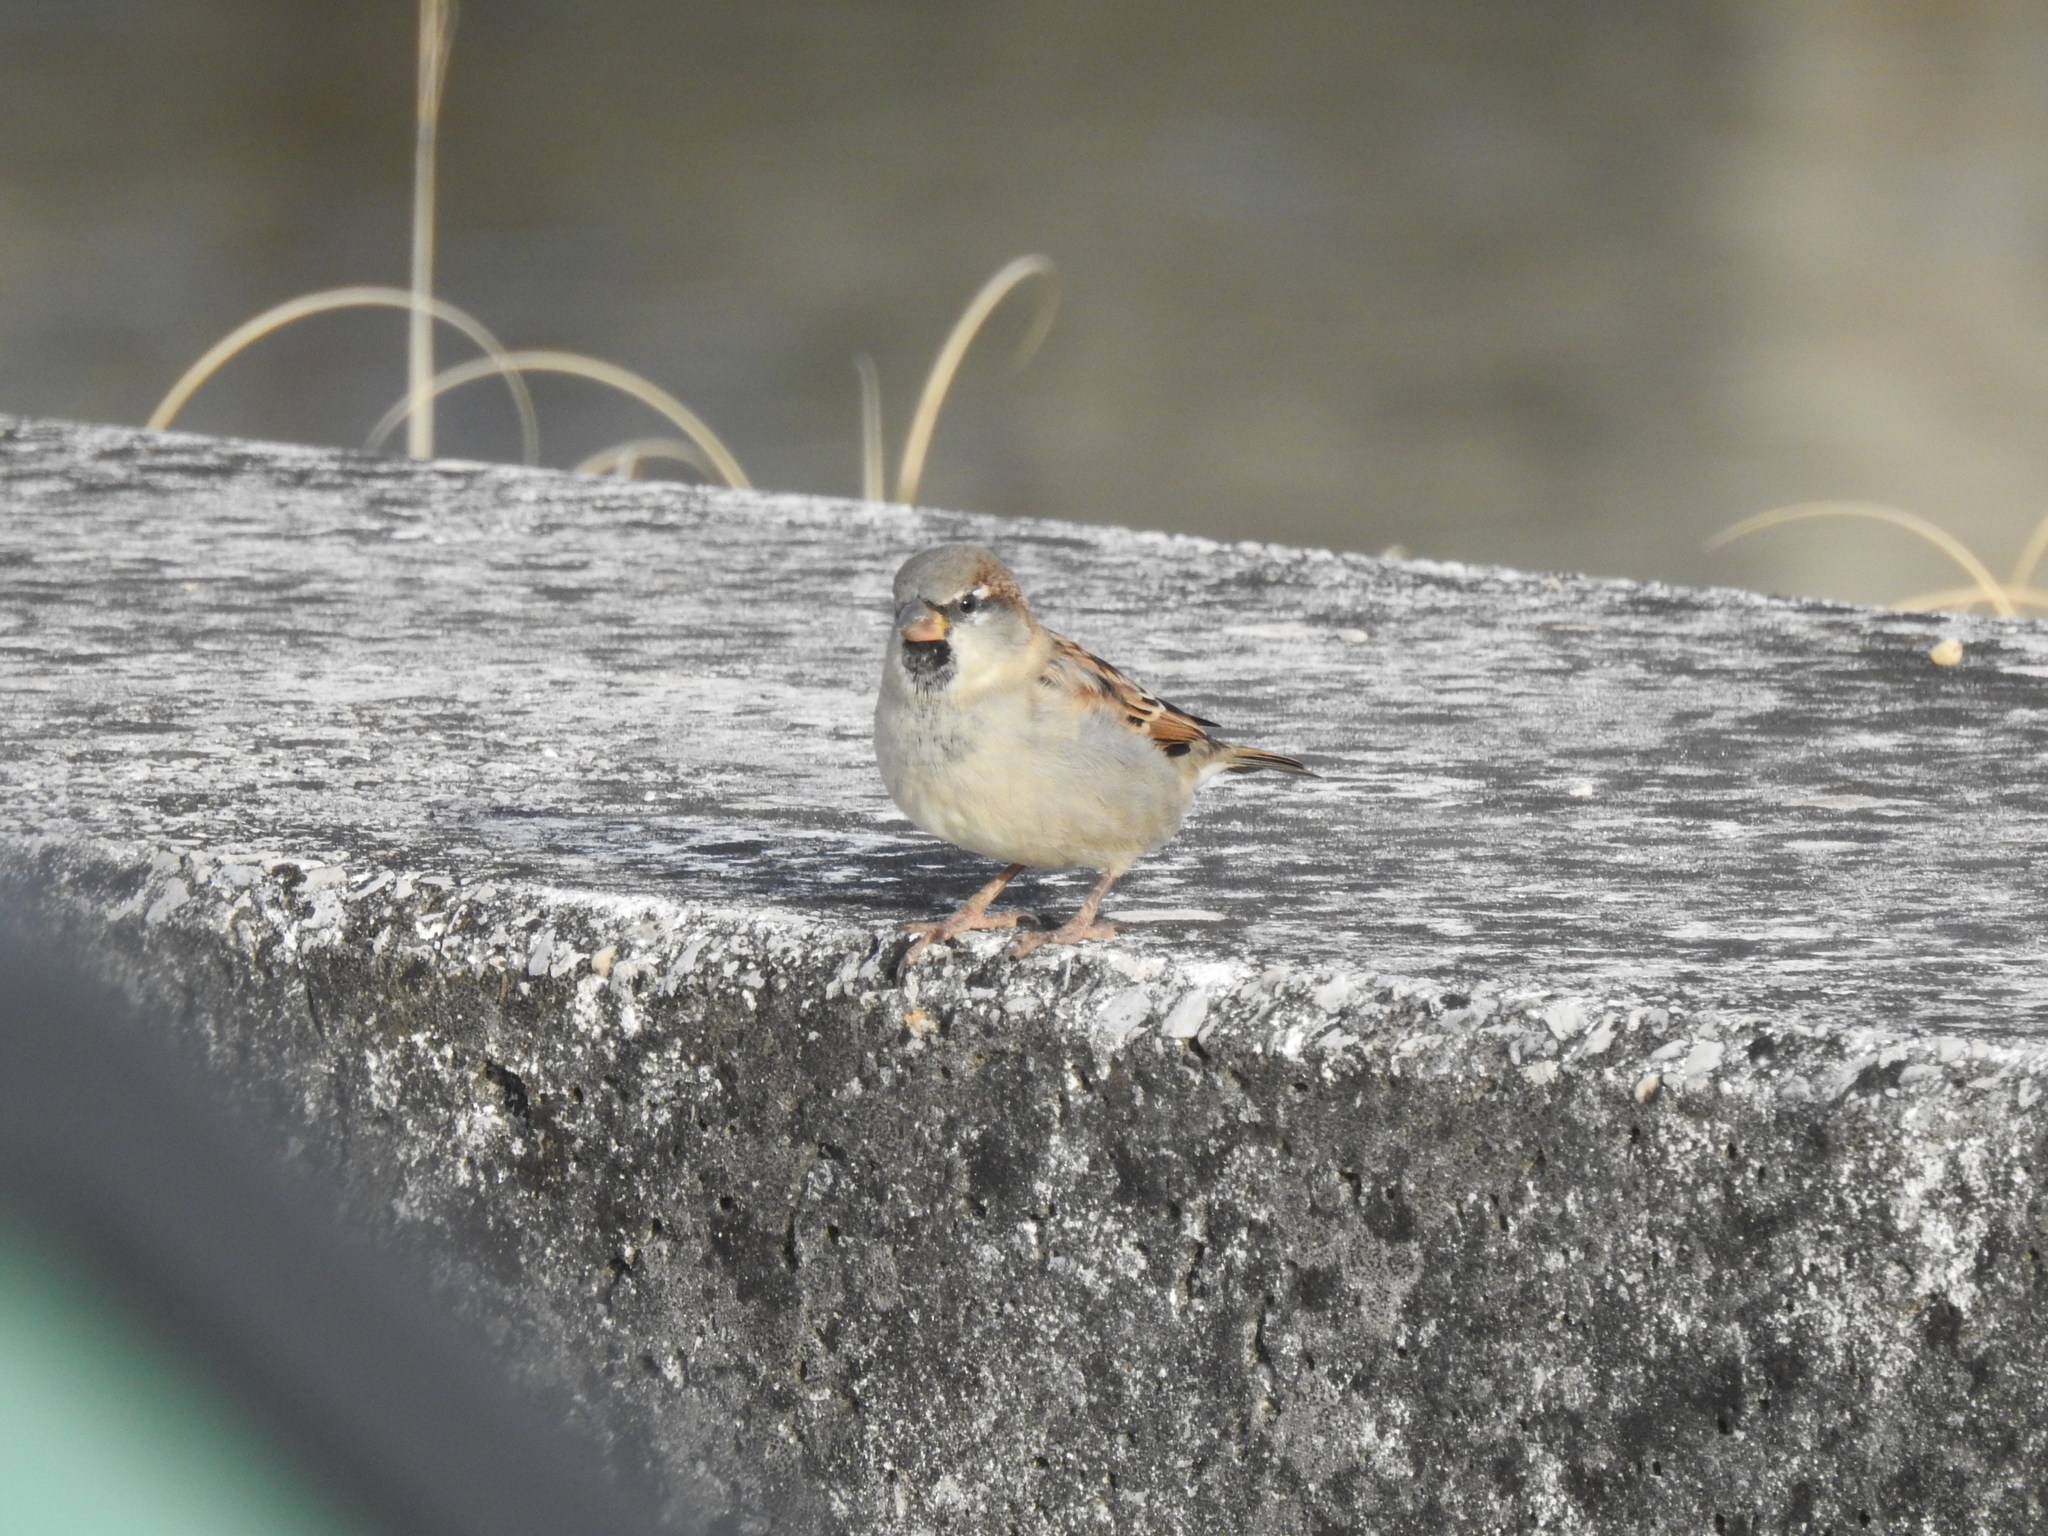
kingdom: Animalia
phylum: Chordata
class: Aves
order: Passeriformes
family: Passeridae
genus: Passer
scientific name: Passer domesticus
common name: House sparrow
